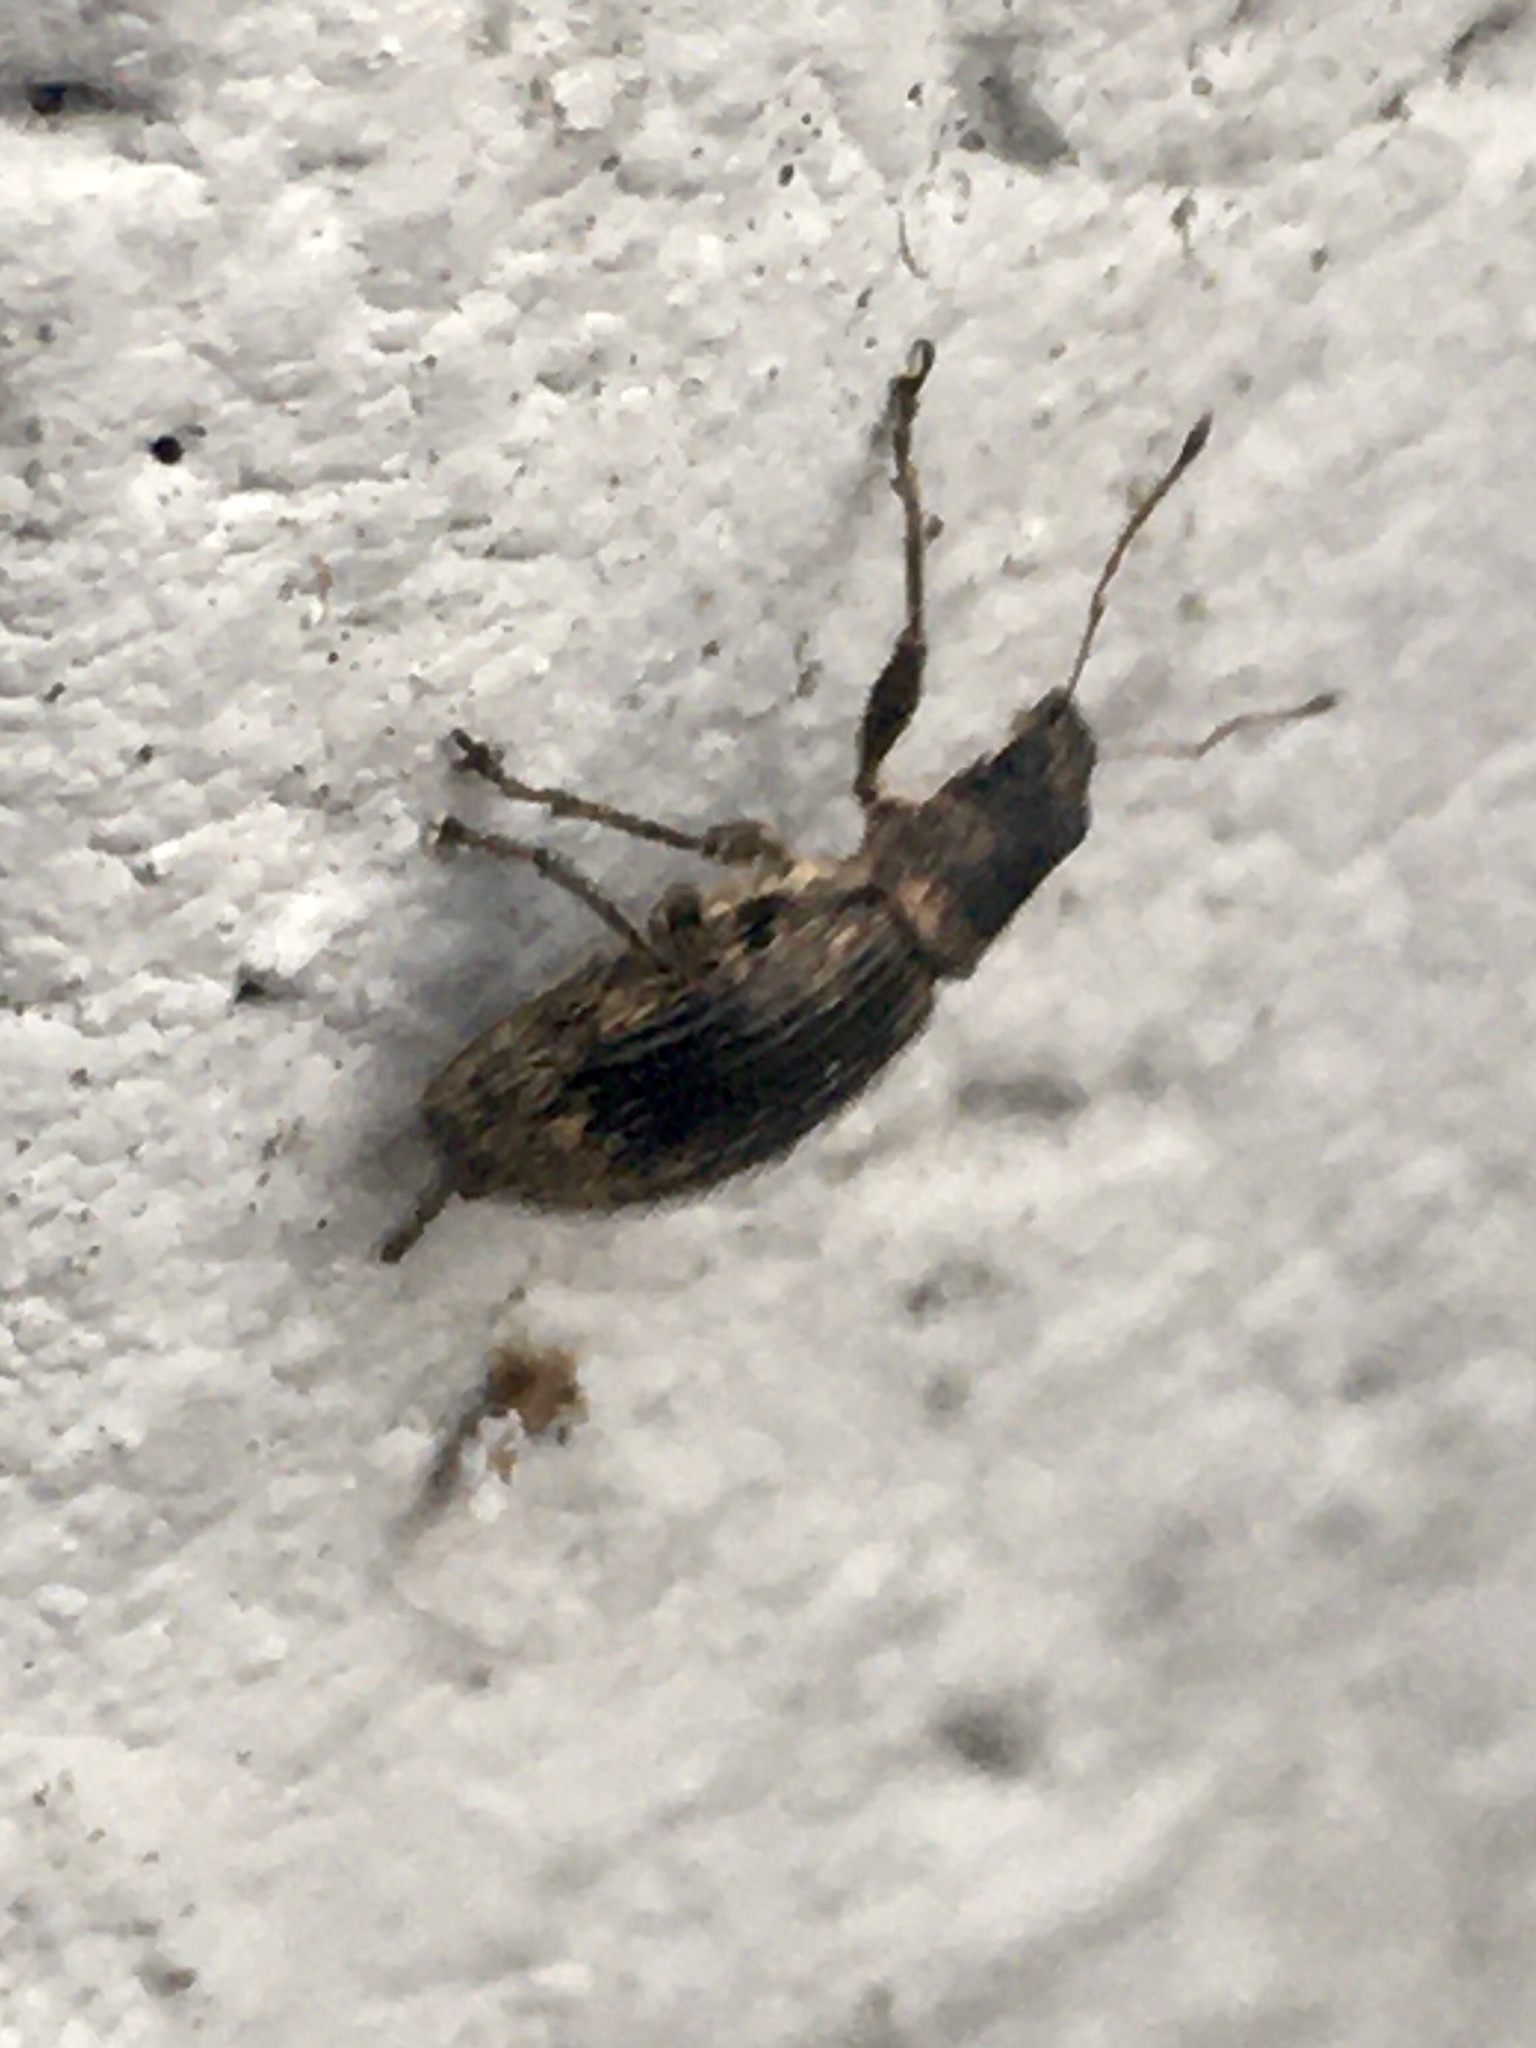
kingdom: Animalia
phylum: Arthropoda
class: Insecta
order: Coleoptera
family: Curculionidae
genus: Polydrusus
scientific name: Polydrusus inustus
